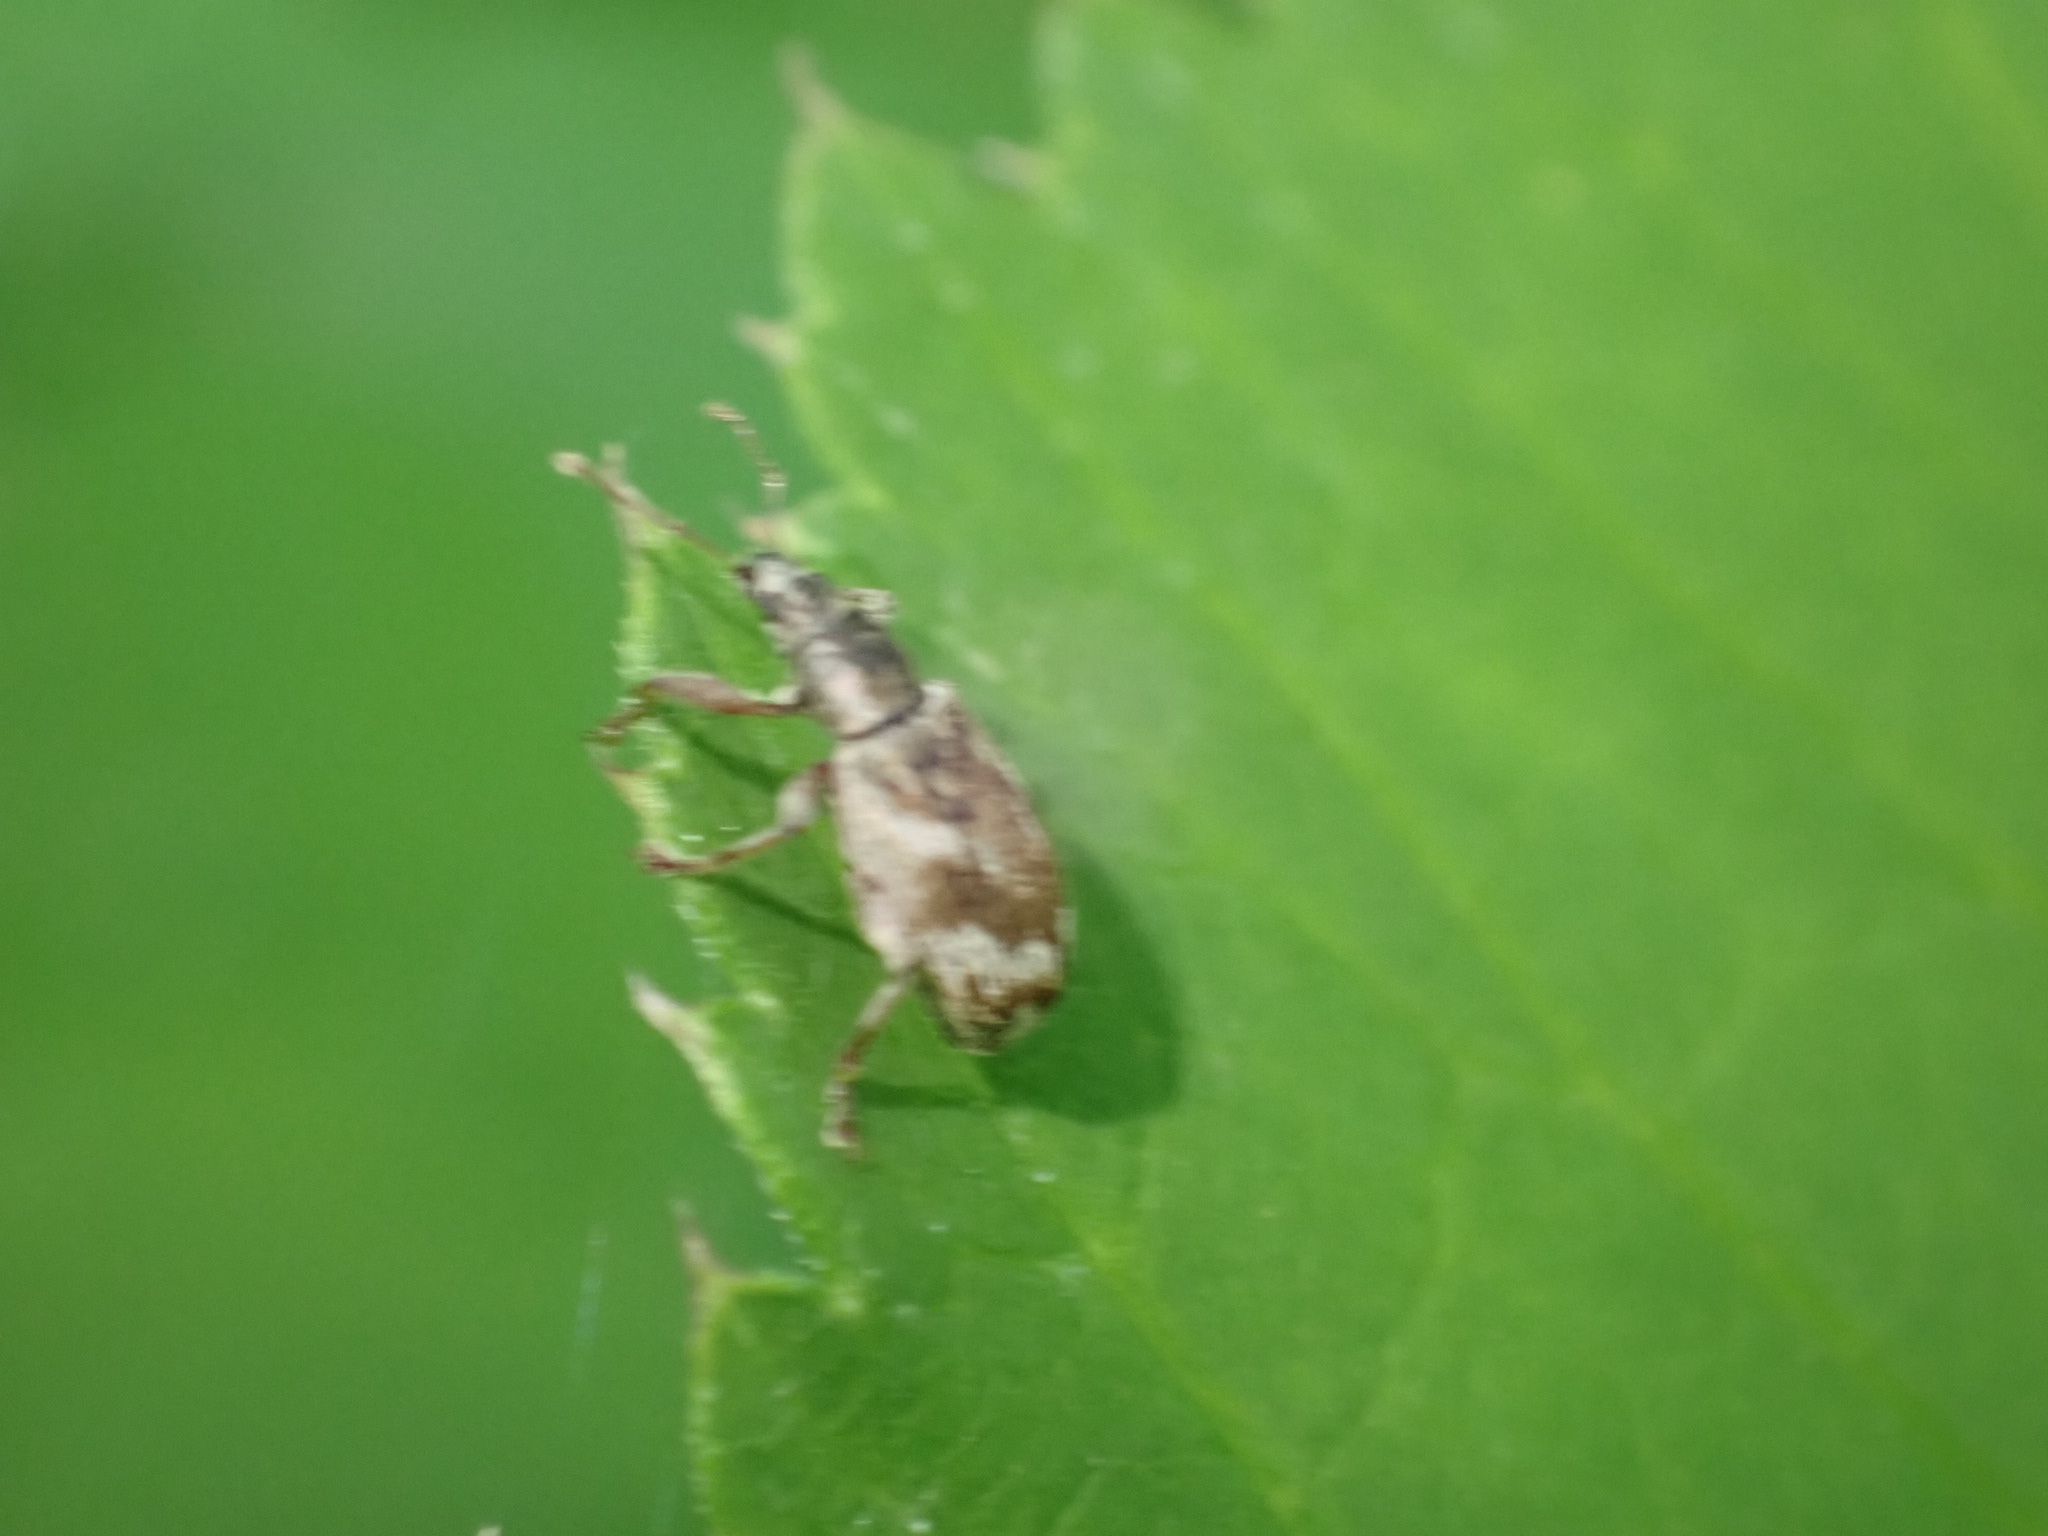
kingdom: Animalia
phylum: Arthropoda
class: Insecta
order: Coleoptera
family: Curculionidae
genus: Polydrusus
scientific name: Polydrusus tereticollis
